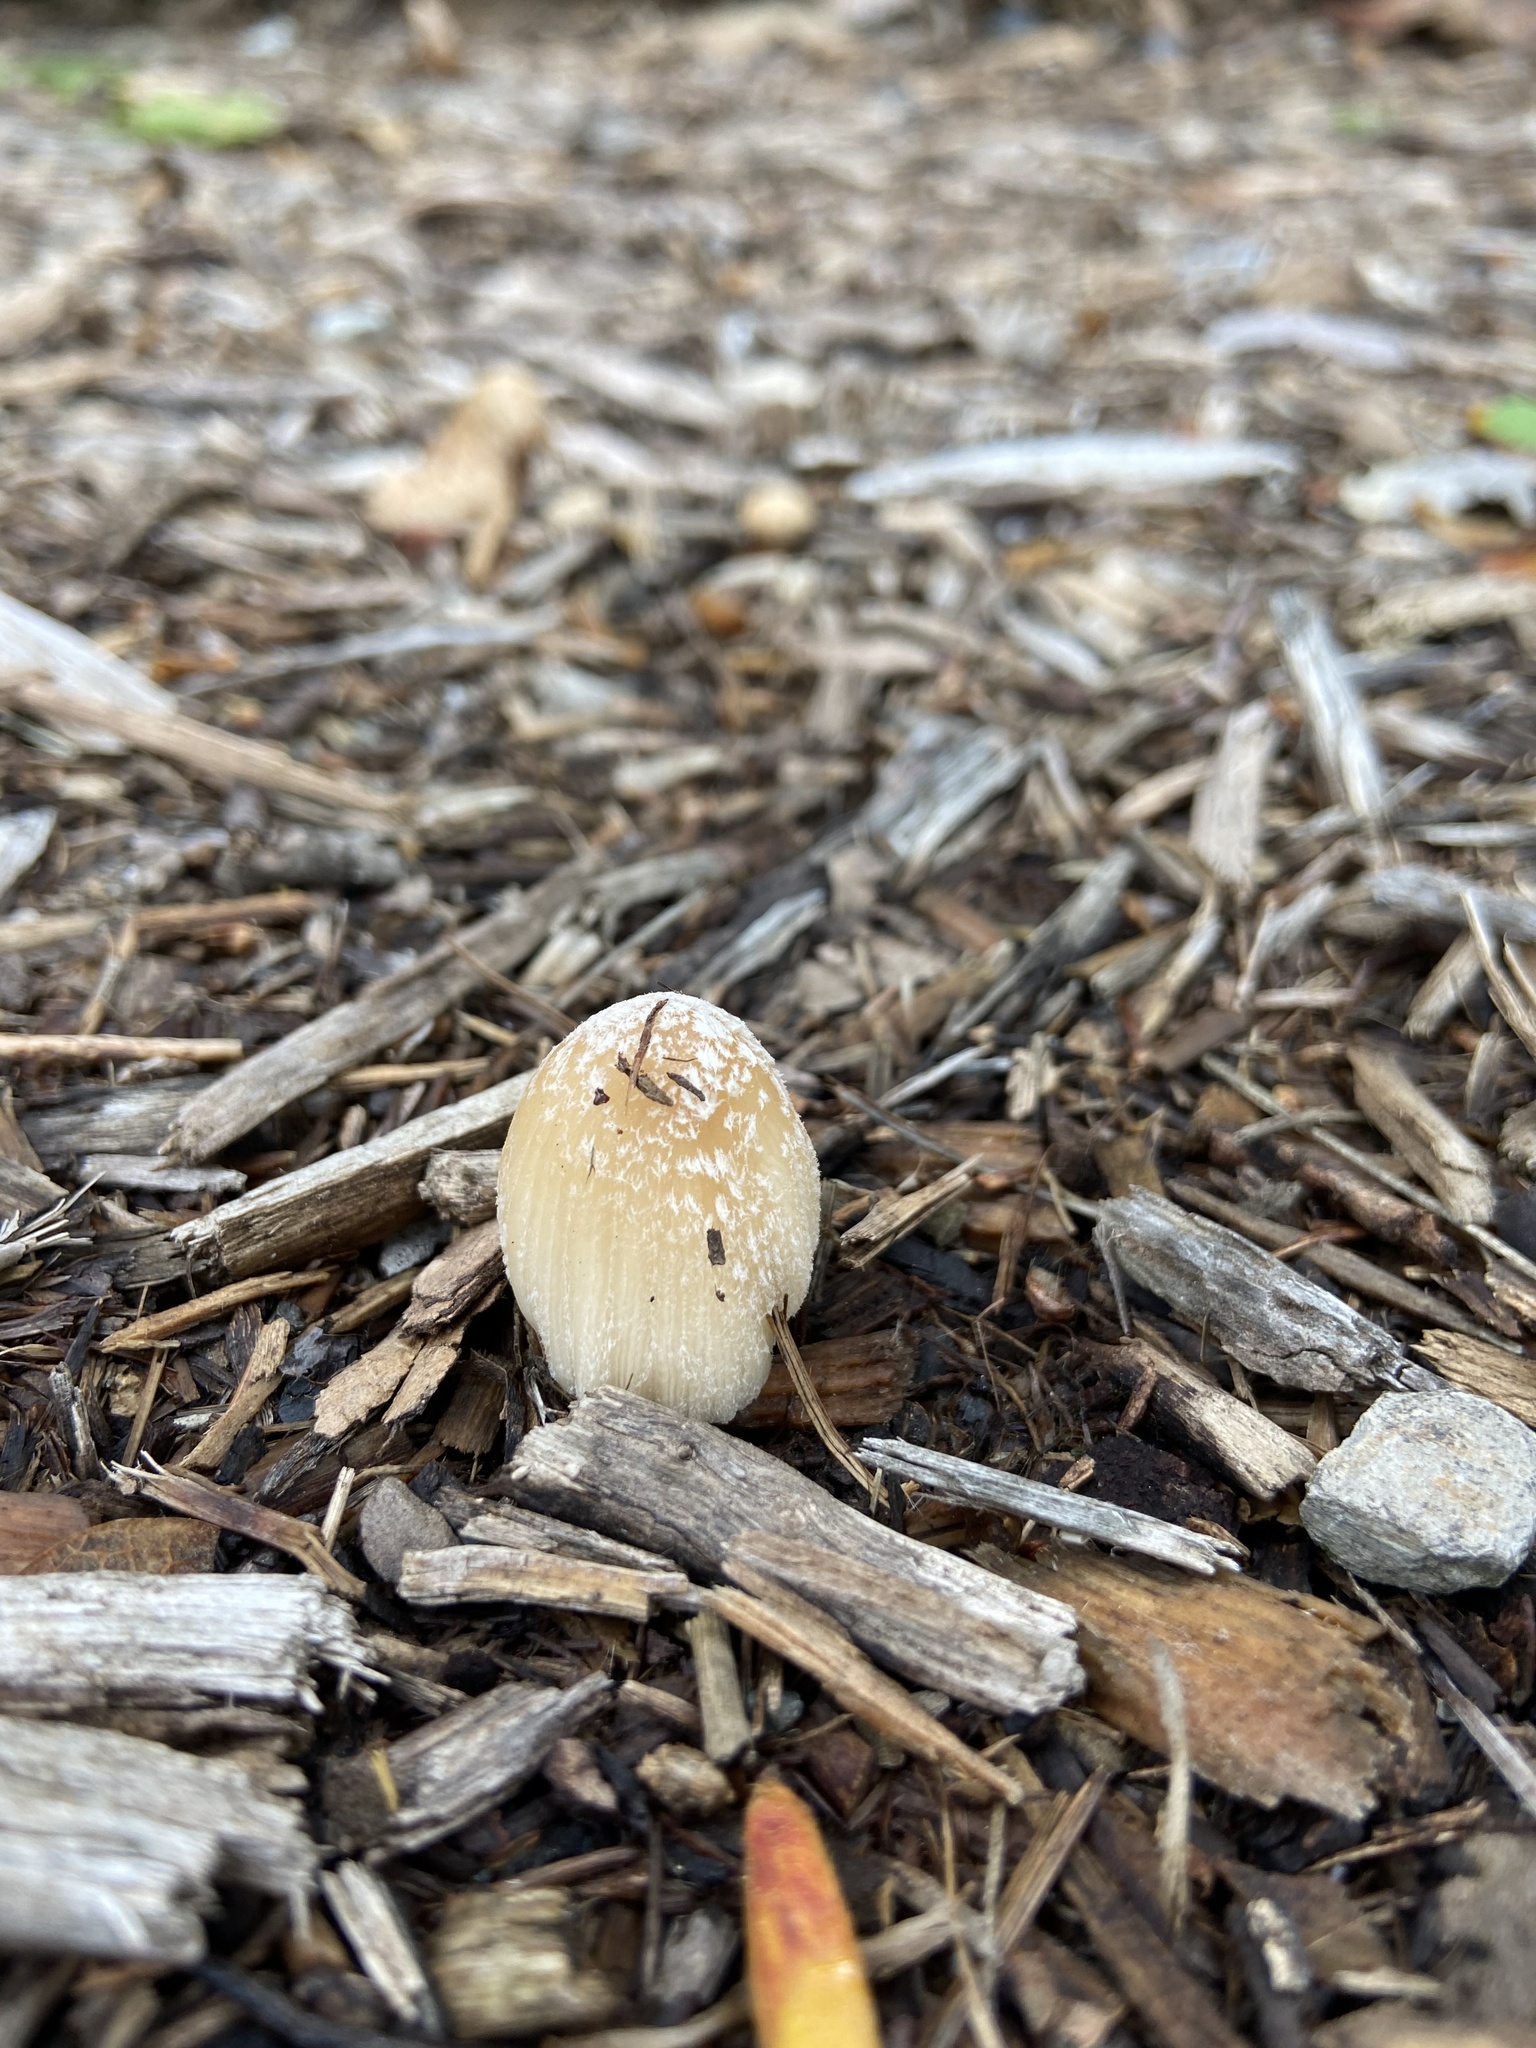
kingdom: Fungi
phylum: Basidiomycota
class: Agaricomycetes
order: Agaricales
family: Psathyrellaceae
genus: Coprinellus
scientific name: Coprinellus flocculosus
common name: Flocculose inkcap
